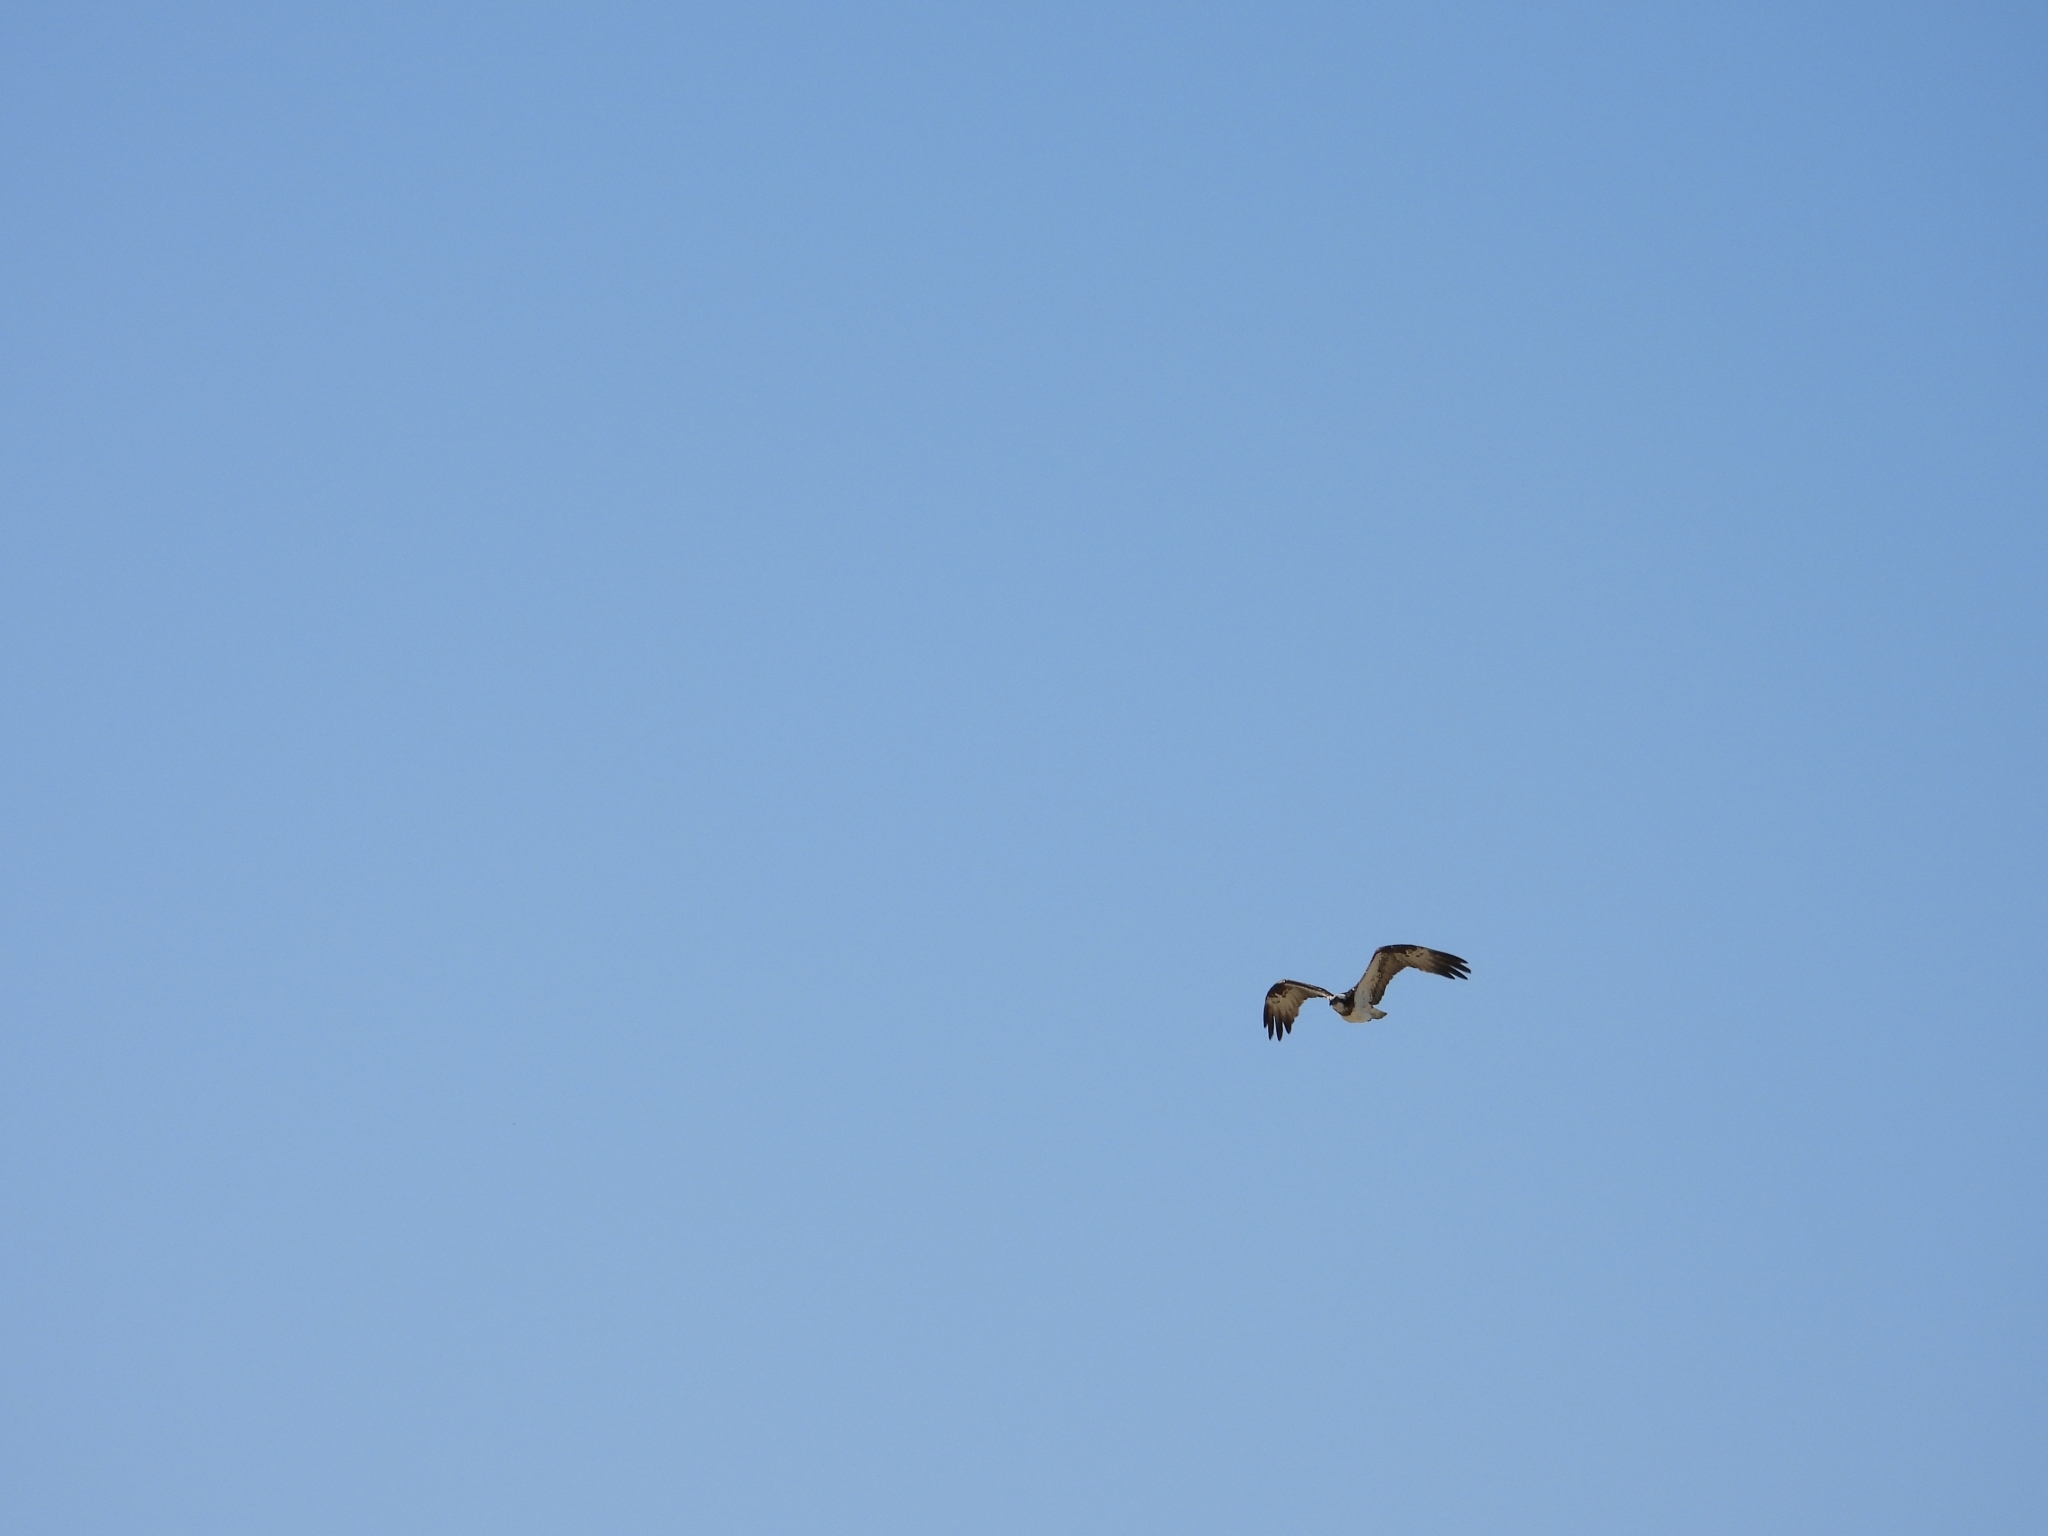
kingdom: Animalia
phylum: Chordata
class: Aves
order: Accipitriformes
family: Pandionidae
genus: Pandion
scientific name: Pandion haliaetus
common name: Osprey
